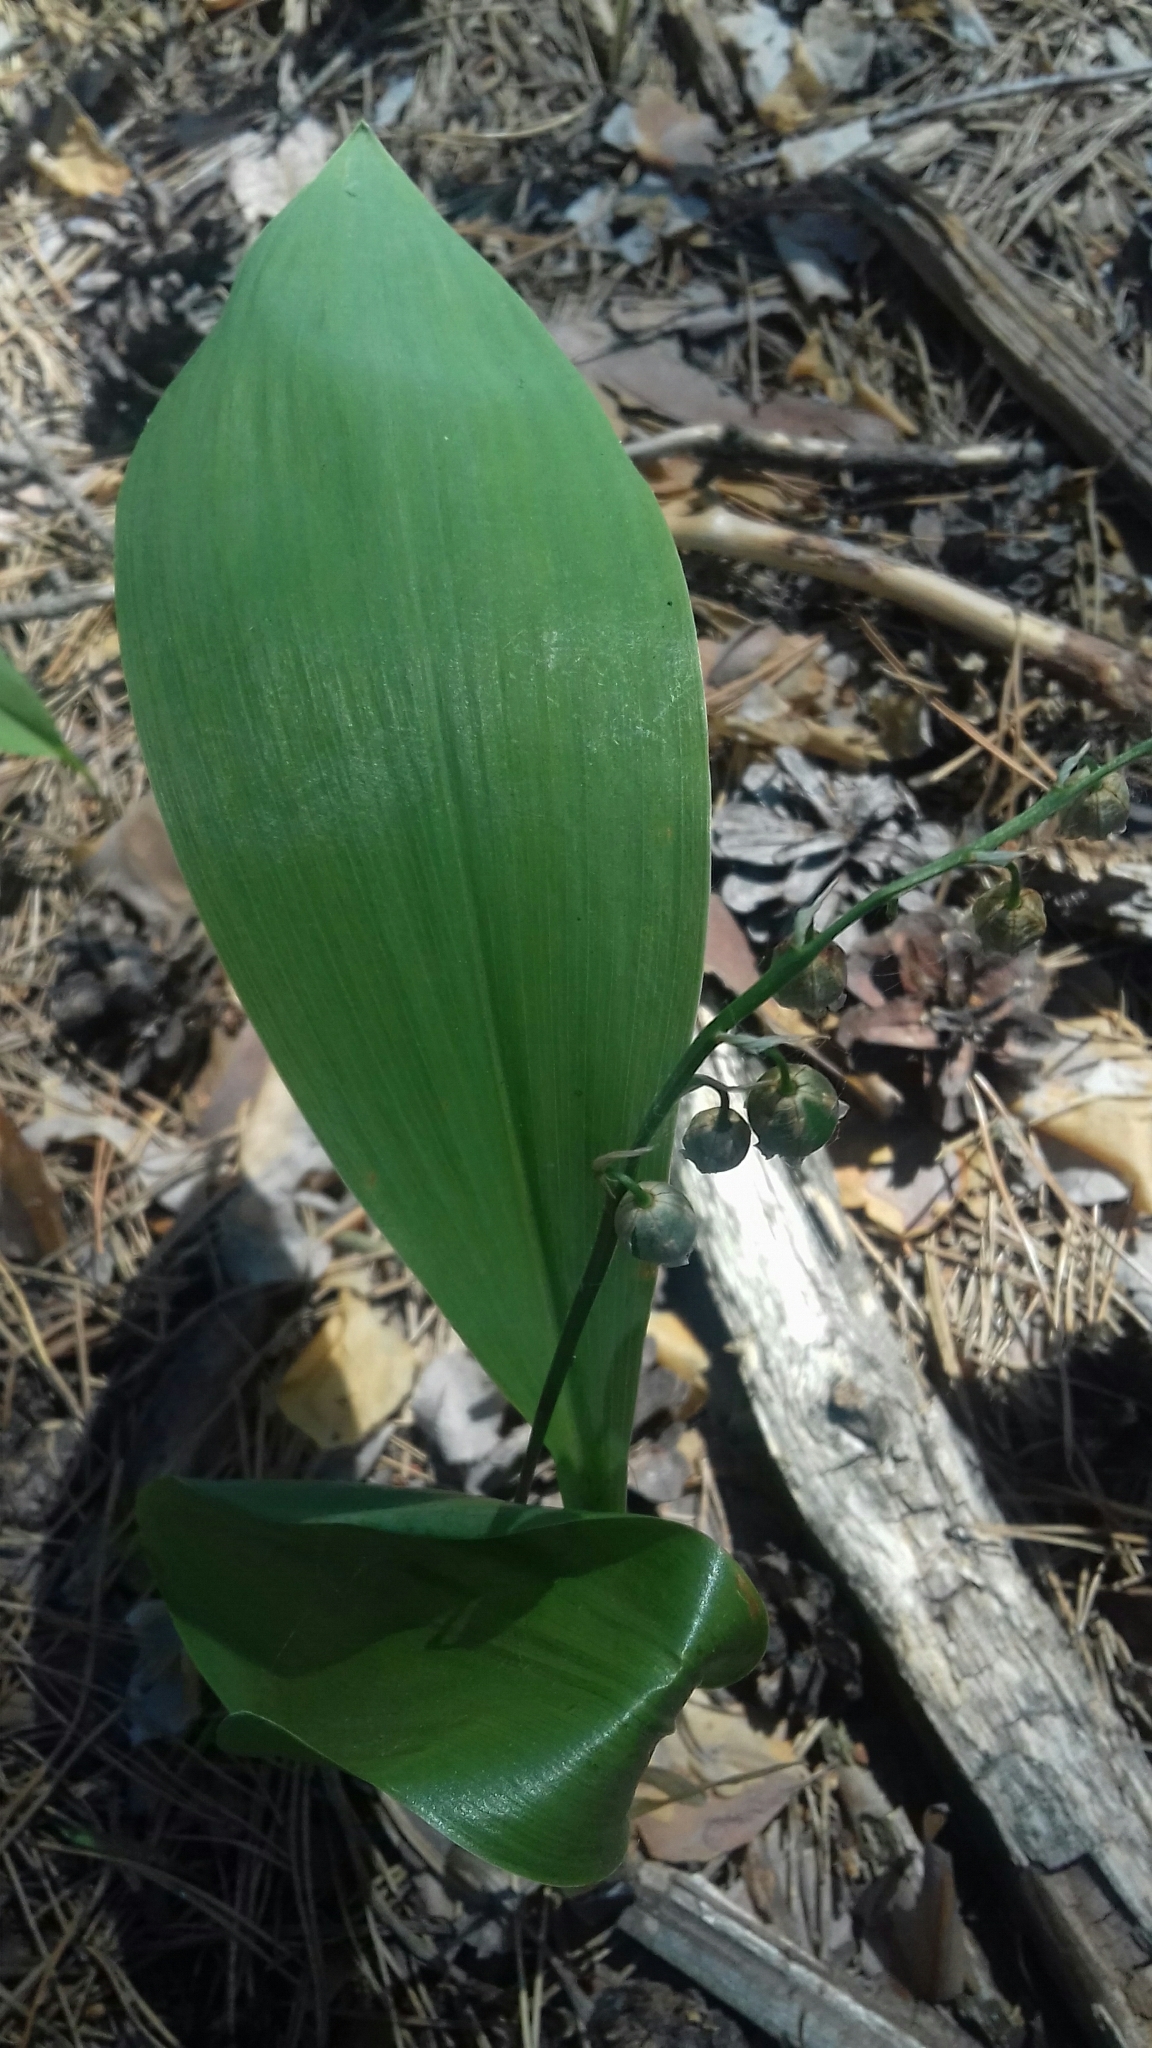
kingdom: Plantae
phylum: Tracheophyta
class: Liliopsida
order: Asparagales
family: Asparagaceae
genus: Convallaria
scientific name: Convallaria majalis
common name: Lily-of-the-valley
